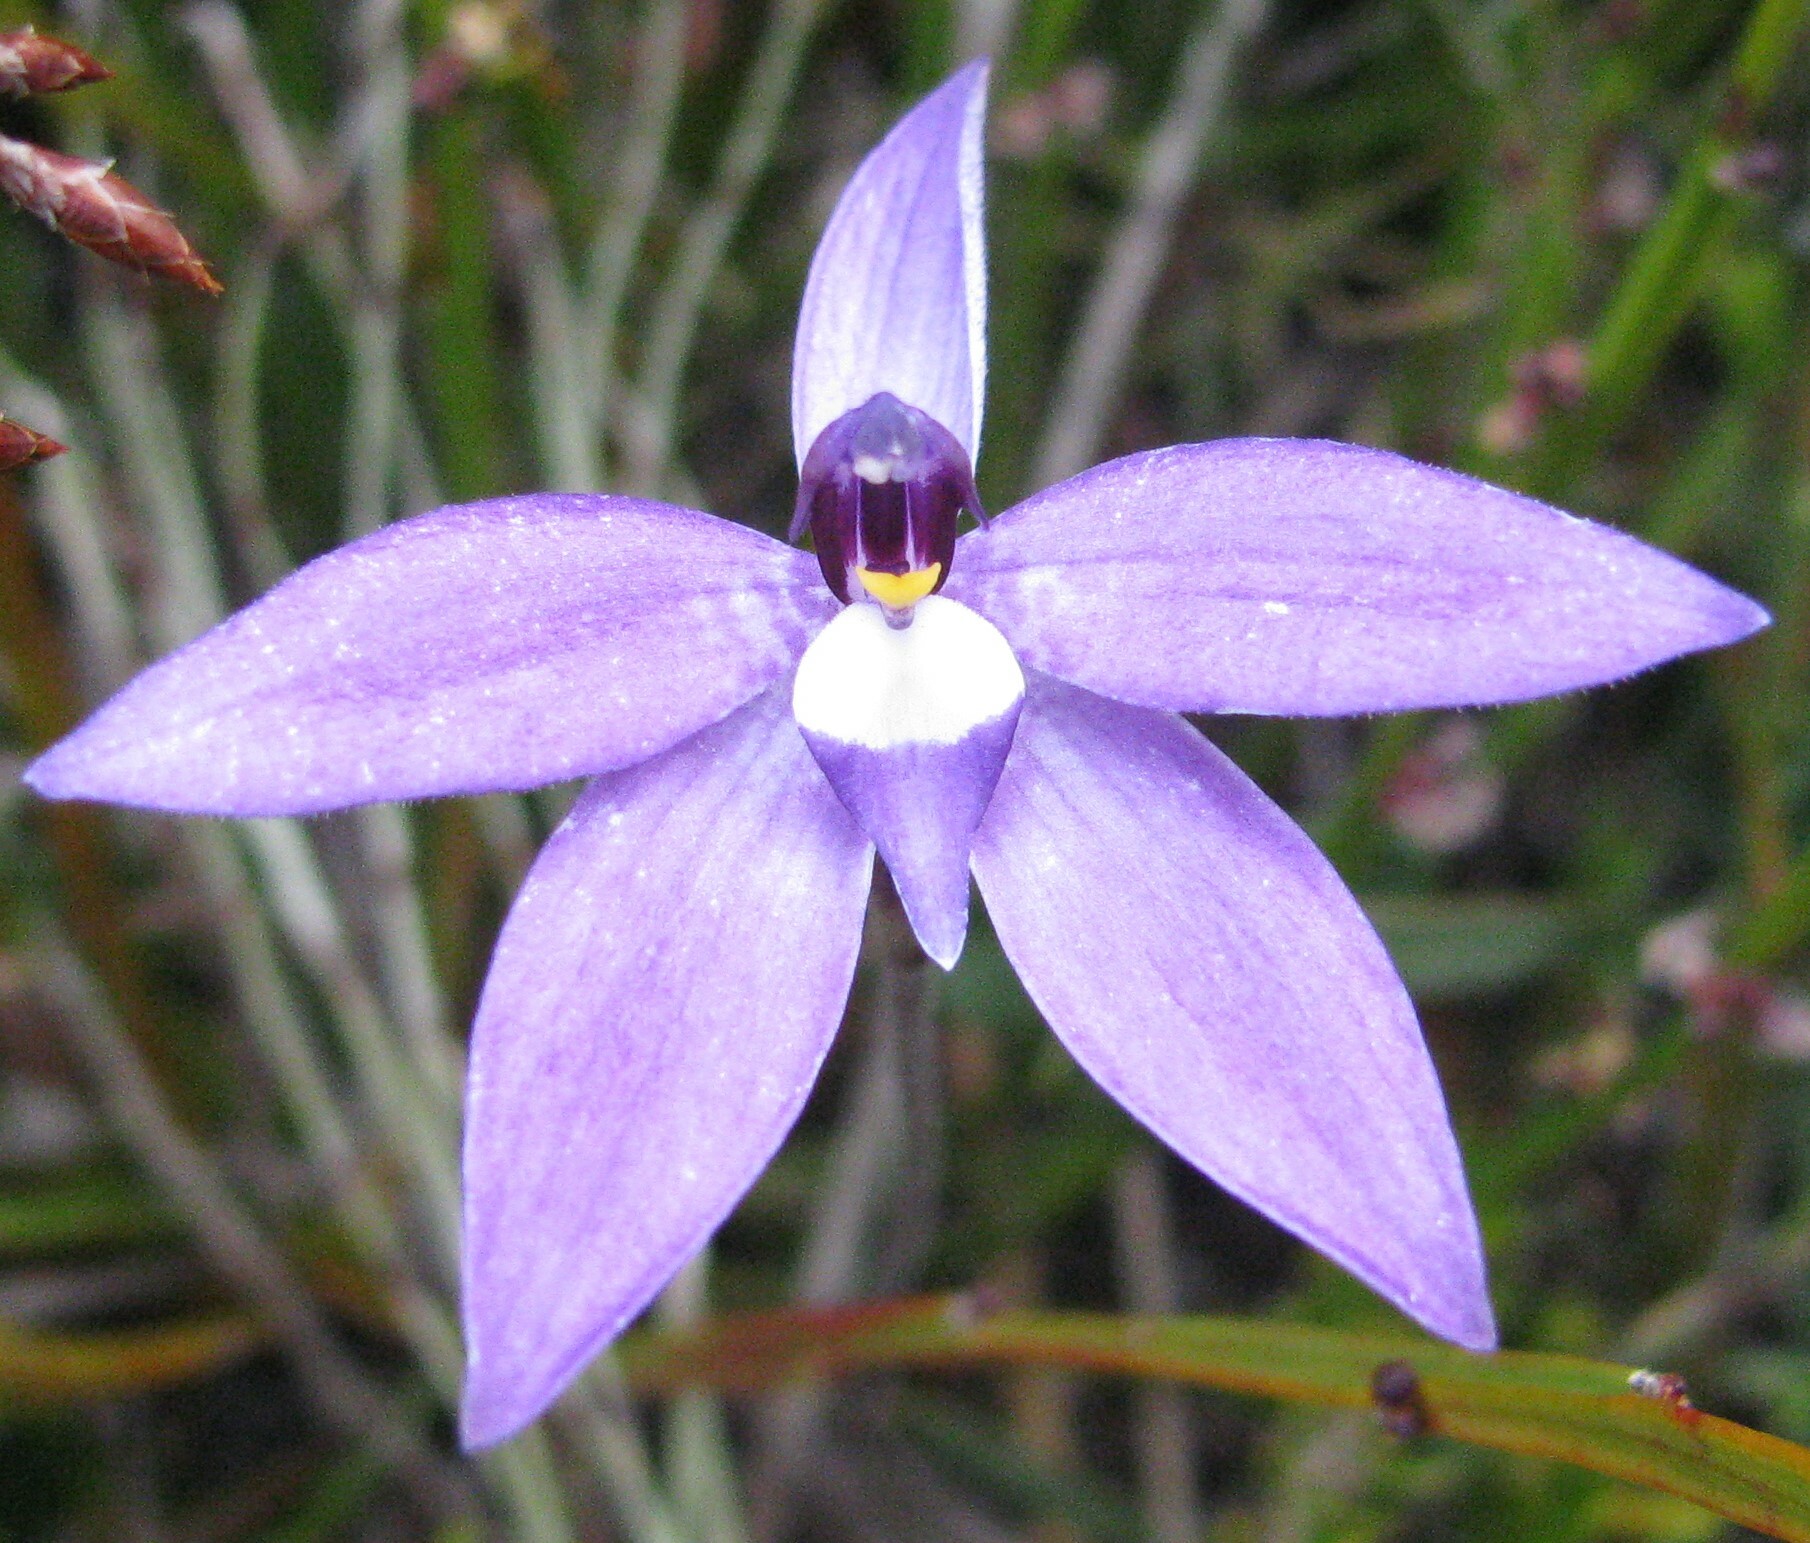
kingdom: Plantae
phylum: Tracheophyta
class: Liliopsida
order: Asparagales
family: Orchidaceae
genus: Caladenia
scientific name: Caladenia major
